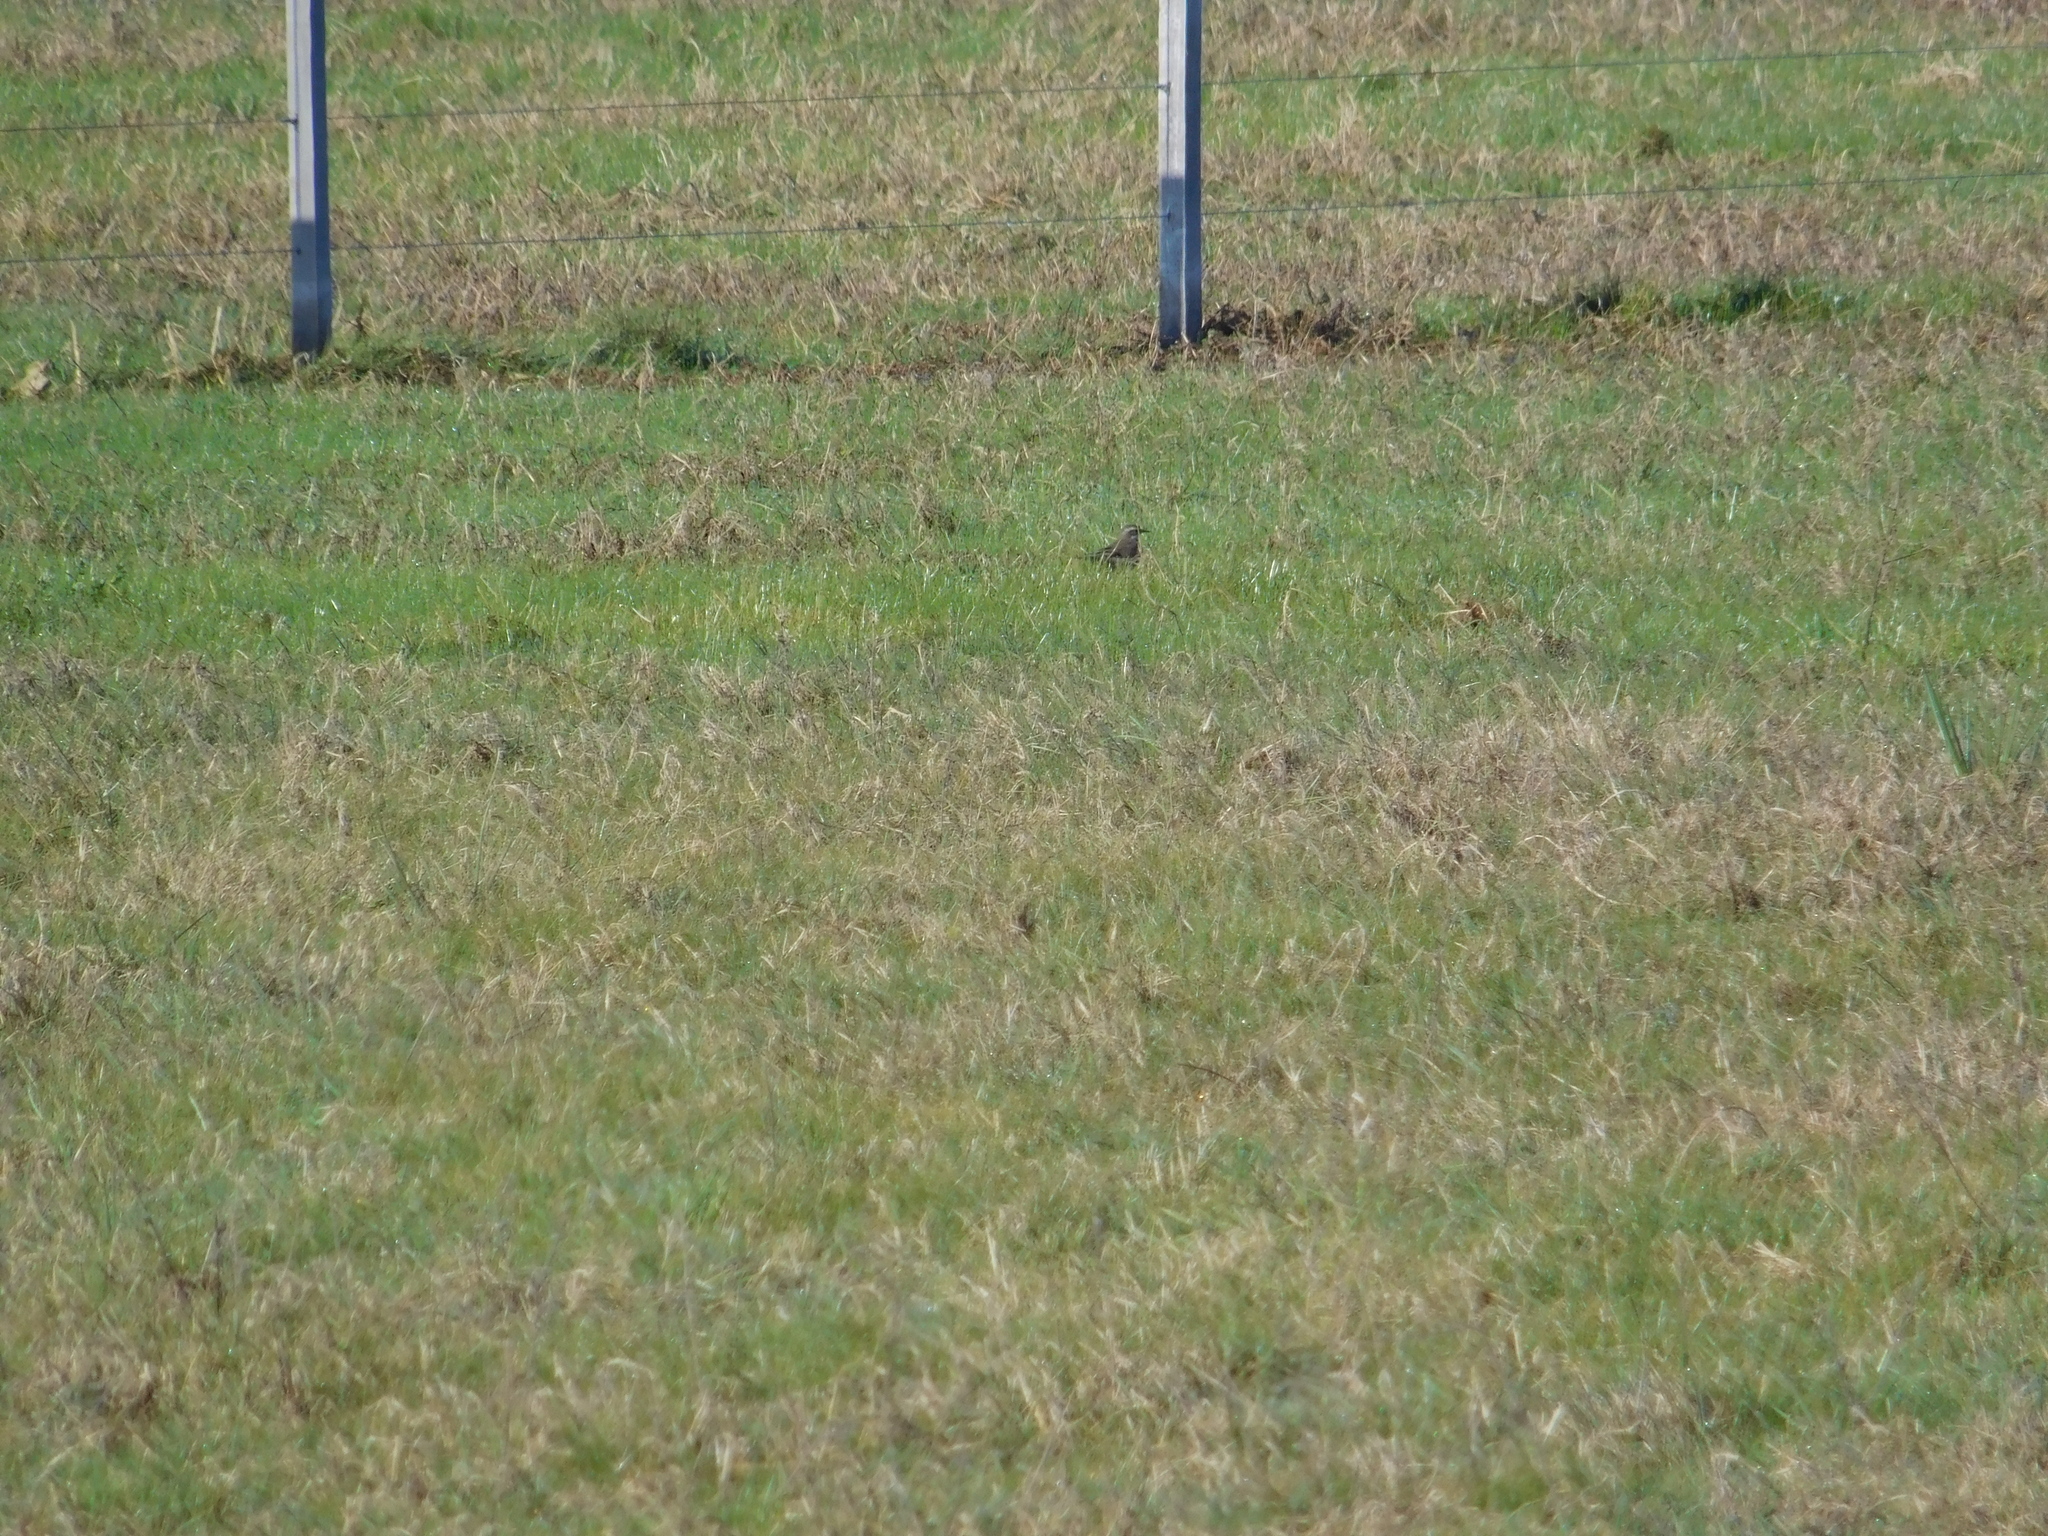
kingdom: Animalia
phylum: Chordata
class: Aves
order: Passeriformes
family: Furnariidae
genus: Cinclodes
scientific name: Cinclodes fuscus
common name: Buff-winged cinclodes
